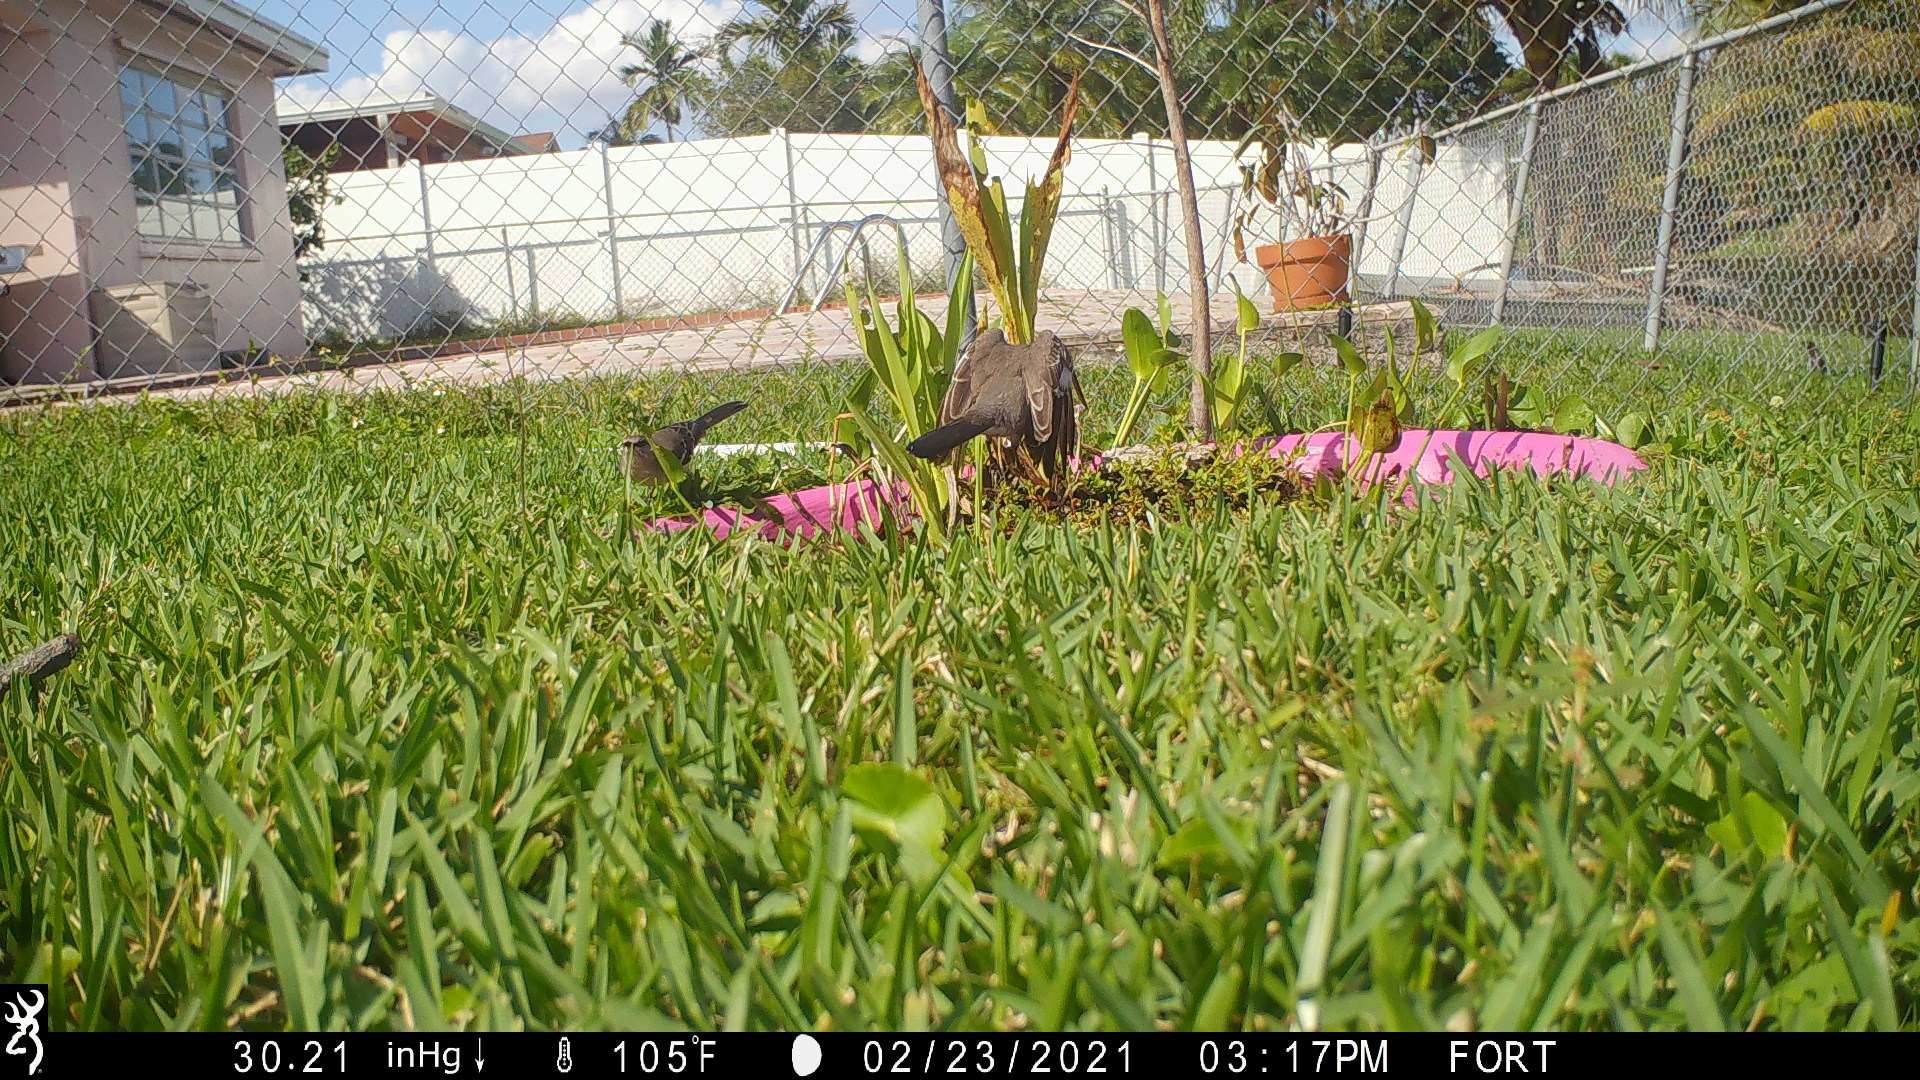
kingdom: Animalia
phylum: Chordata
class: Aves
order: Passeriformes
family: Mimidae
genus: Mimus
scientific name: Mimus polyglottos
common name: Northern mockingbird
